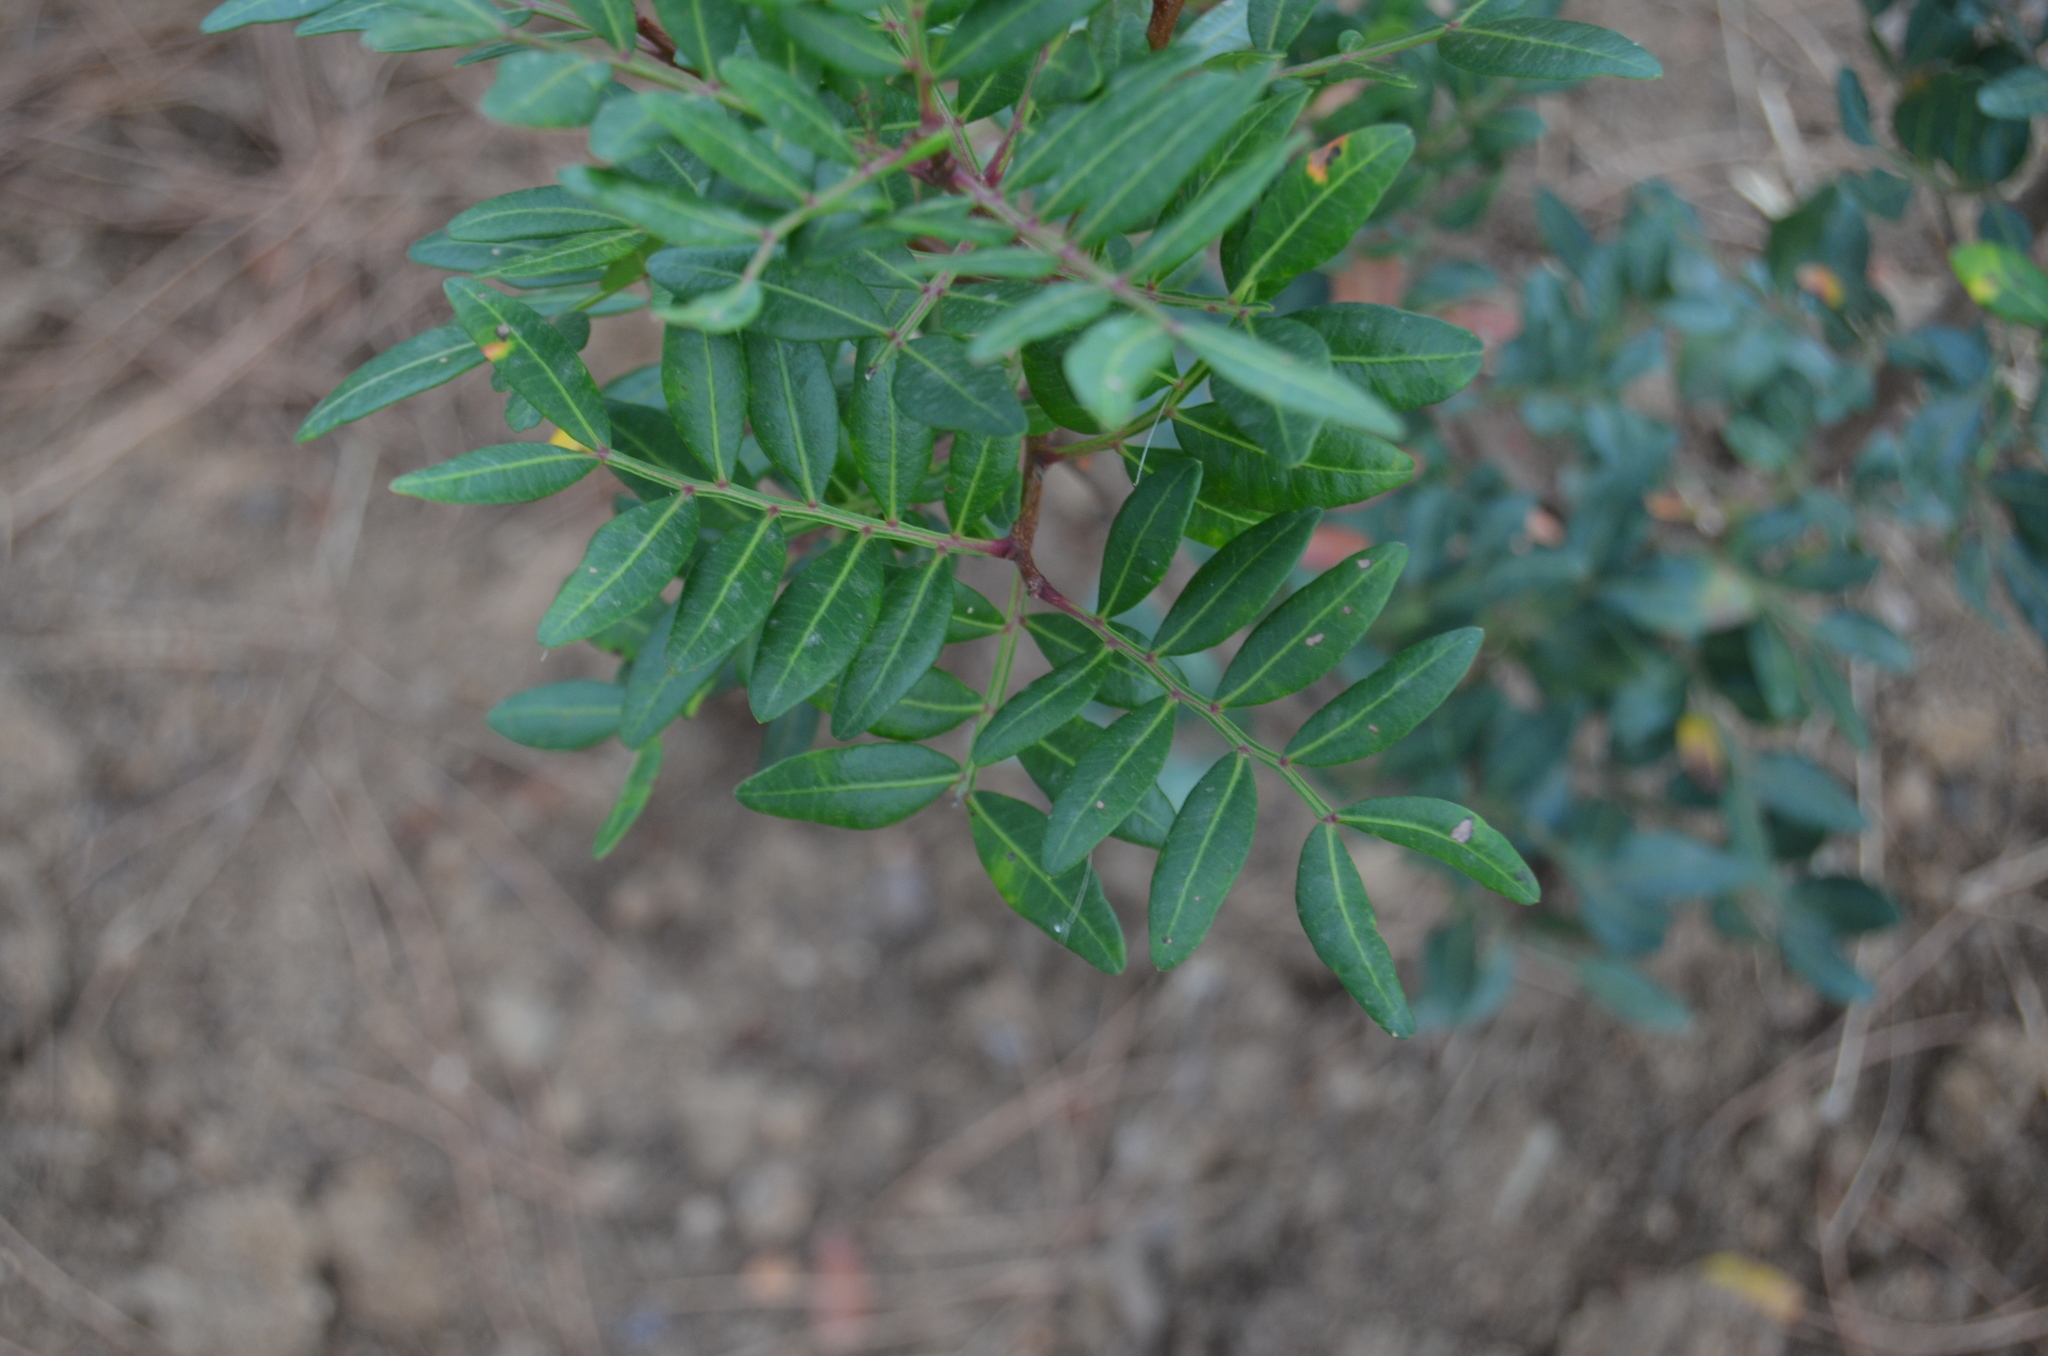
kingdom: Plantae
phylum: Tracheophyta
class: Magnoliopsida
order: Sapindales
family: Anacardiaceae
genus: Pistacia
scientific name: Pistacia lentiscus
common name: Lentisk
